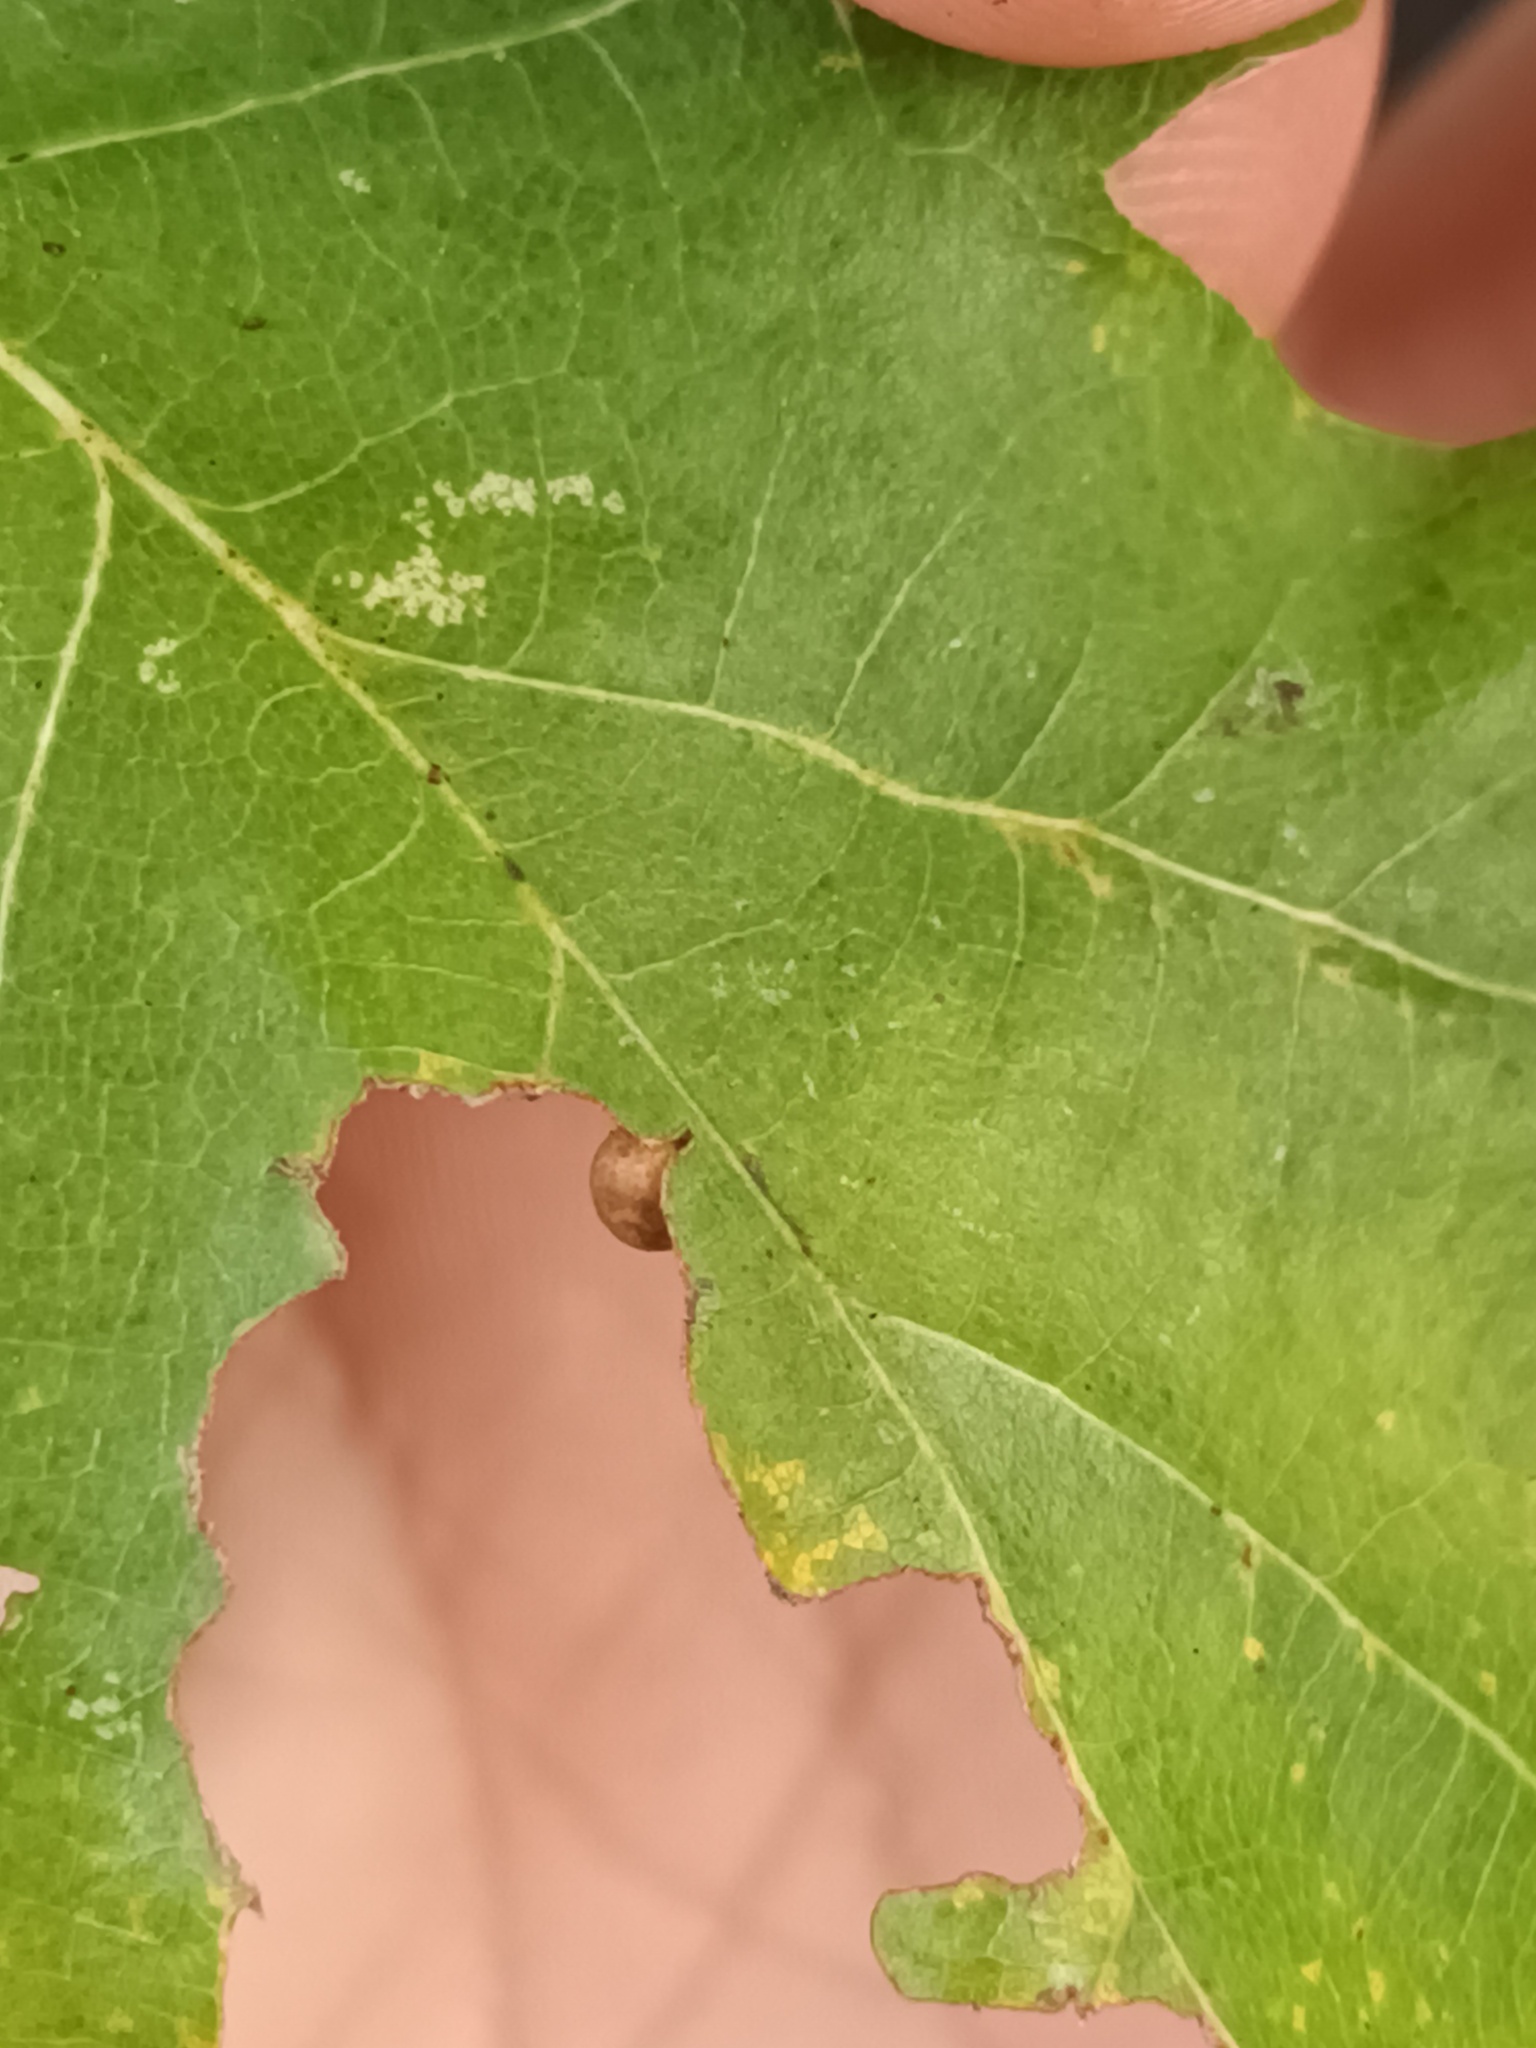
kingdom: Animalia
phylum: Arthropoda
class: Insecta
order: Hymenoptera
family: Cynipidae
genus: Neuroterus
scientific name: Neuroterus anthracinus
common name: Oyster gall
